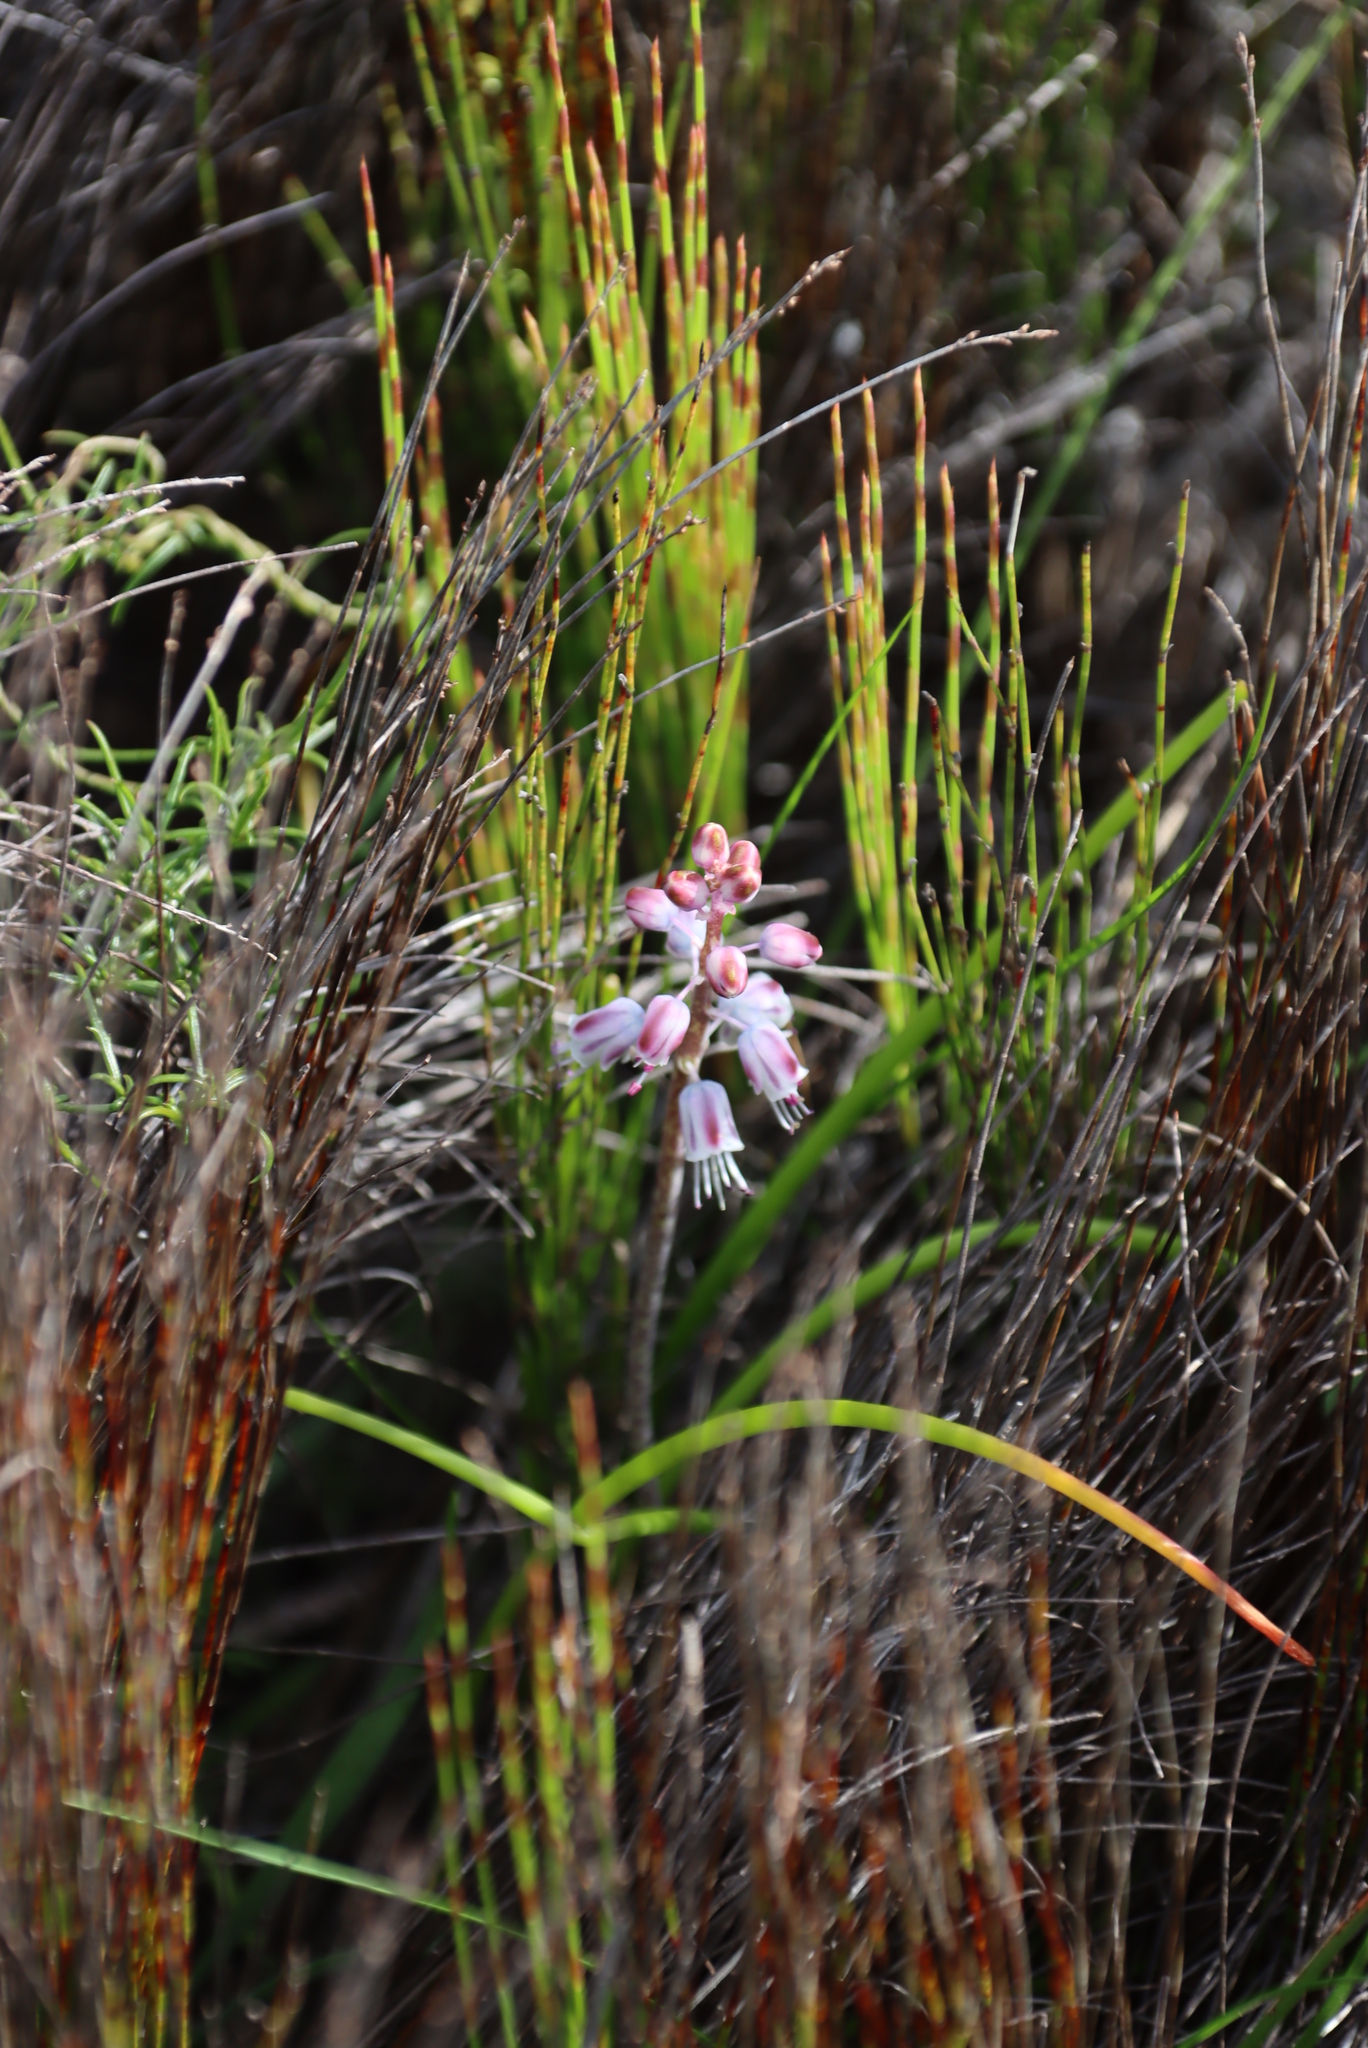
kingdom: Plantae
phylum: Tracheophyta
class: Liliopsida
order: Asparagales
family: Asparagaceae
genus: Lachenalia
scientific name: Lachenalia juncifolia
